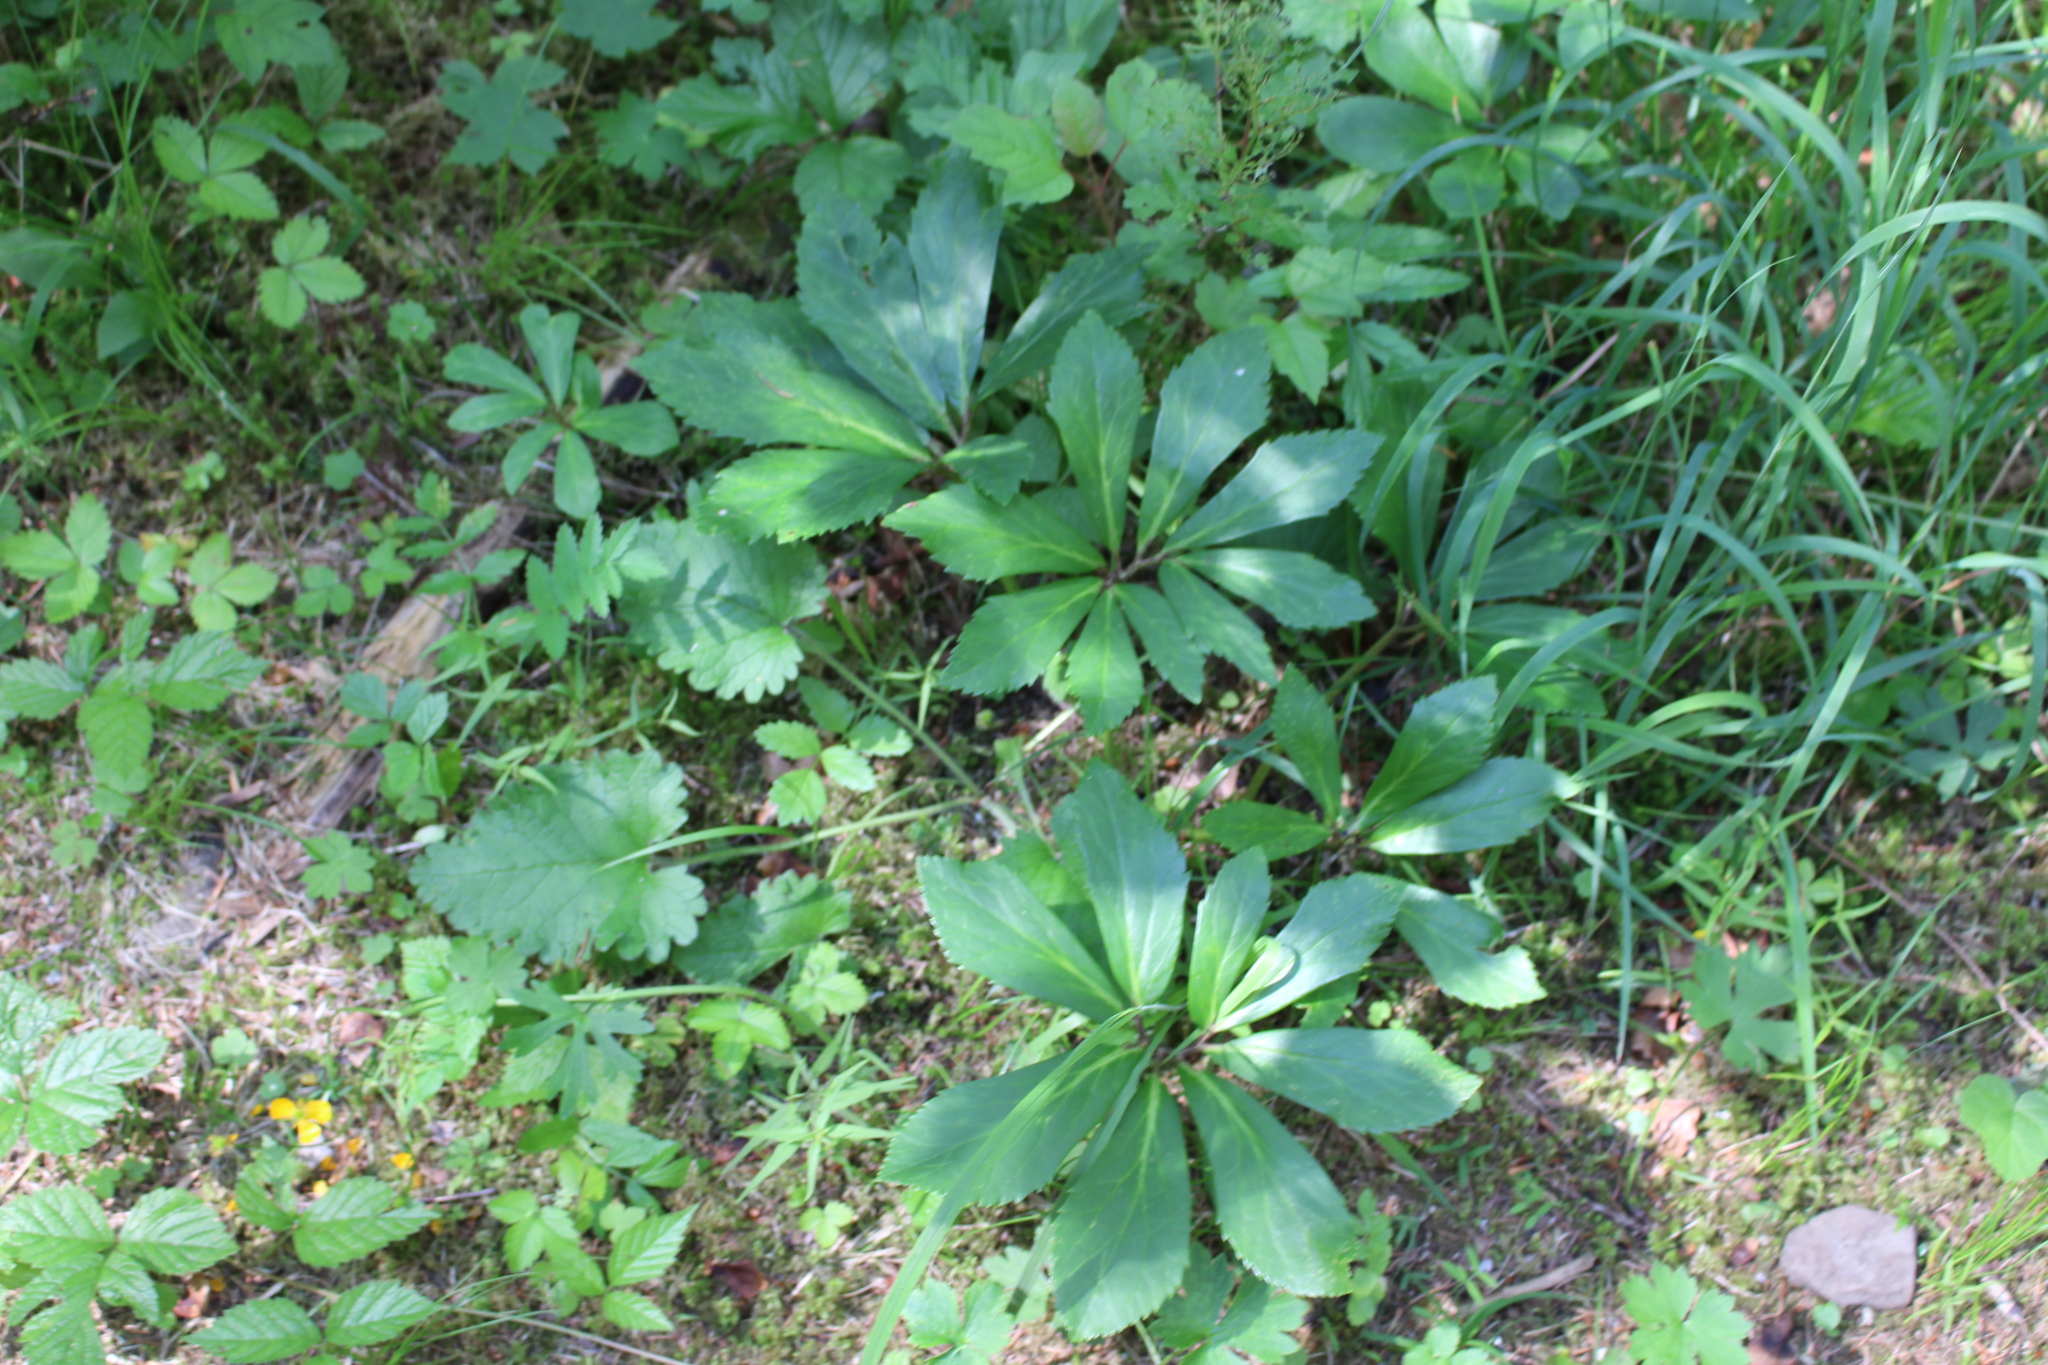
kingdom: Plantae
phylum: Tracheophyta
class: Magnoliopsida
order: Ranunculales
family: Ranunculaceae
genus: Helleborus
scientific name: Helleborus niger
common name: Black hellebore
